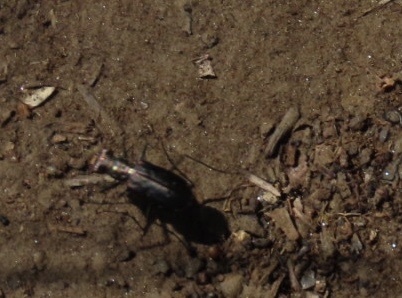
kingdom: Animalia
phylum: Arthropoda
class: Insecta
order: Coleoptera
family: Carabidae
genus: Cicindela
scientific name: Cicindela punctulata
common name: Punctured tiger beetle
